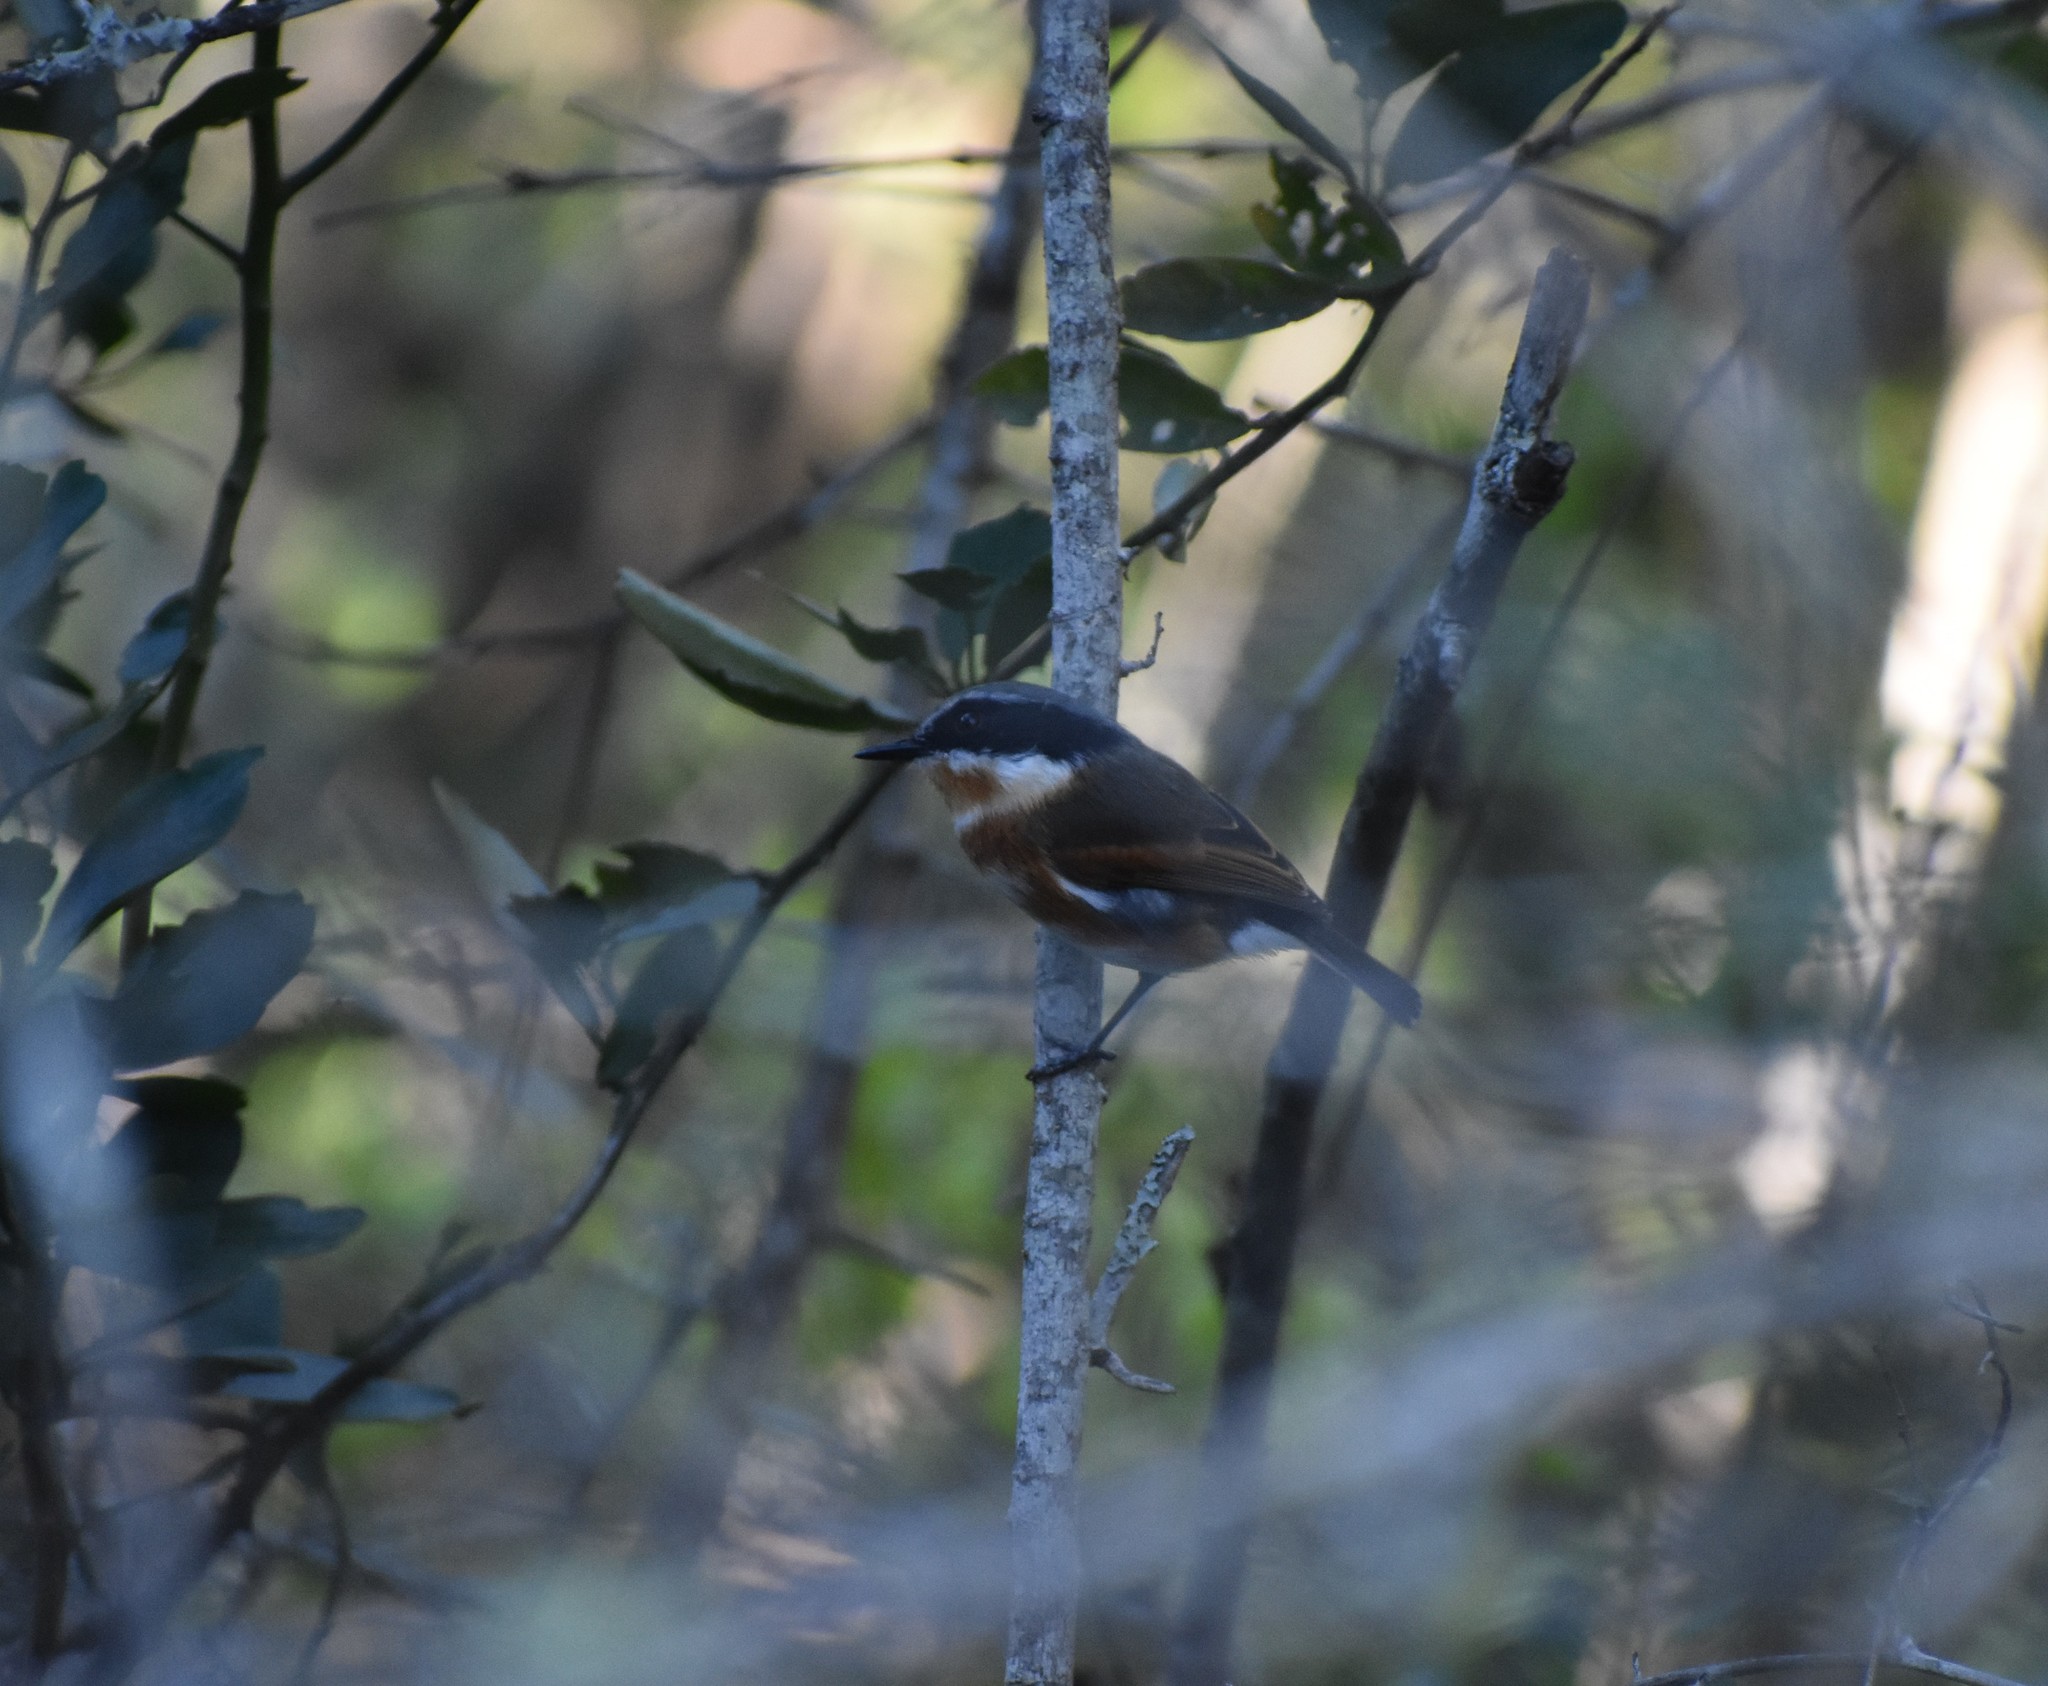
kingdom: Animalia
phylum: Chordata
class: Aves
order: Passeriformes
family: Platysteiridae
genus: Batis
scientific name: Batis capensis
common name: Cape batis
